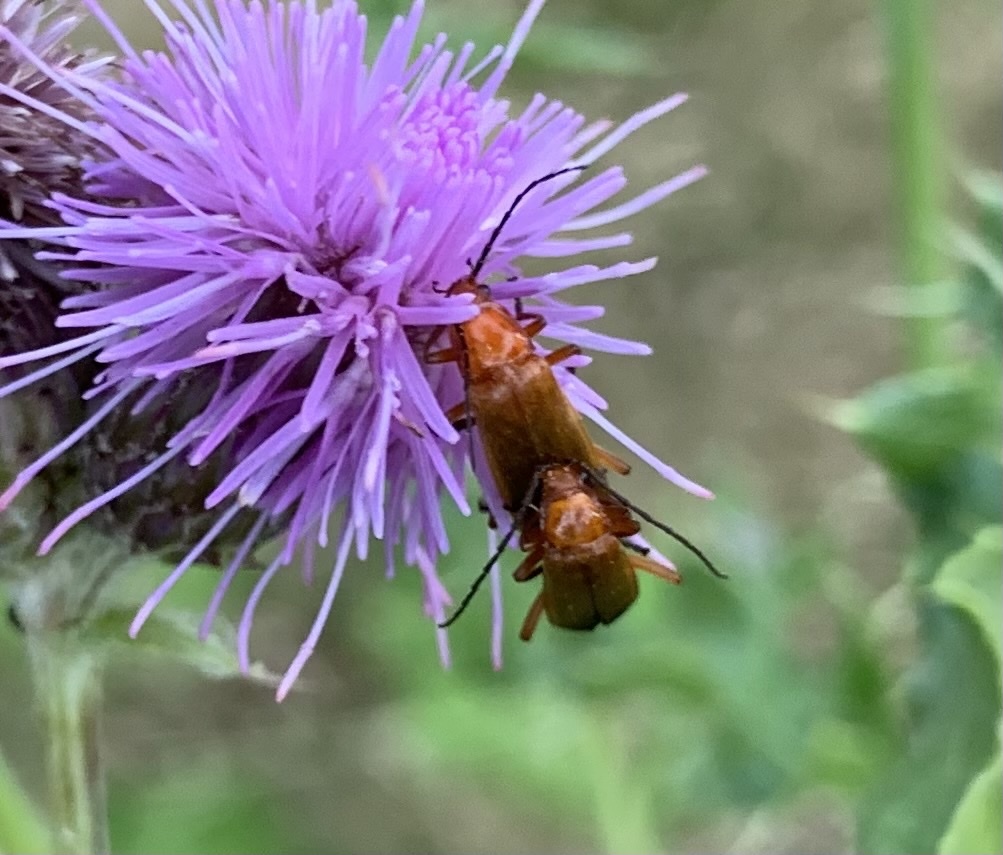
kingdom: Animalia
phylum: Arthropoda
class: Insecta
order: Coleoptera
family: Cantharidae
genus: Rhagonycha
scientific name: Rhagonycha fulva
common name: Common red soldier beetle
